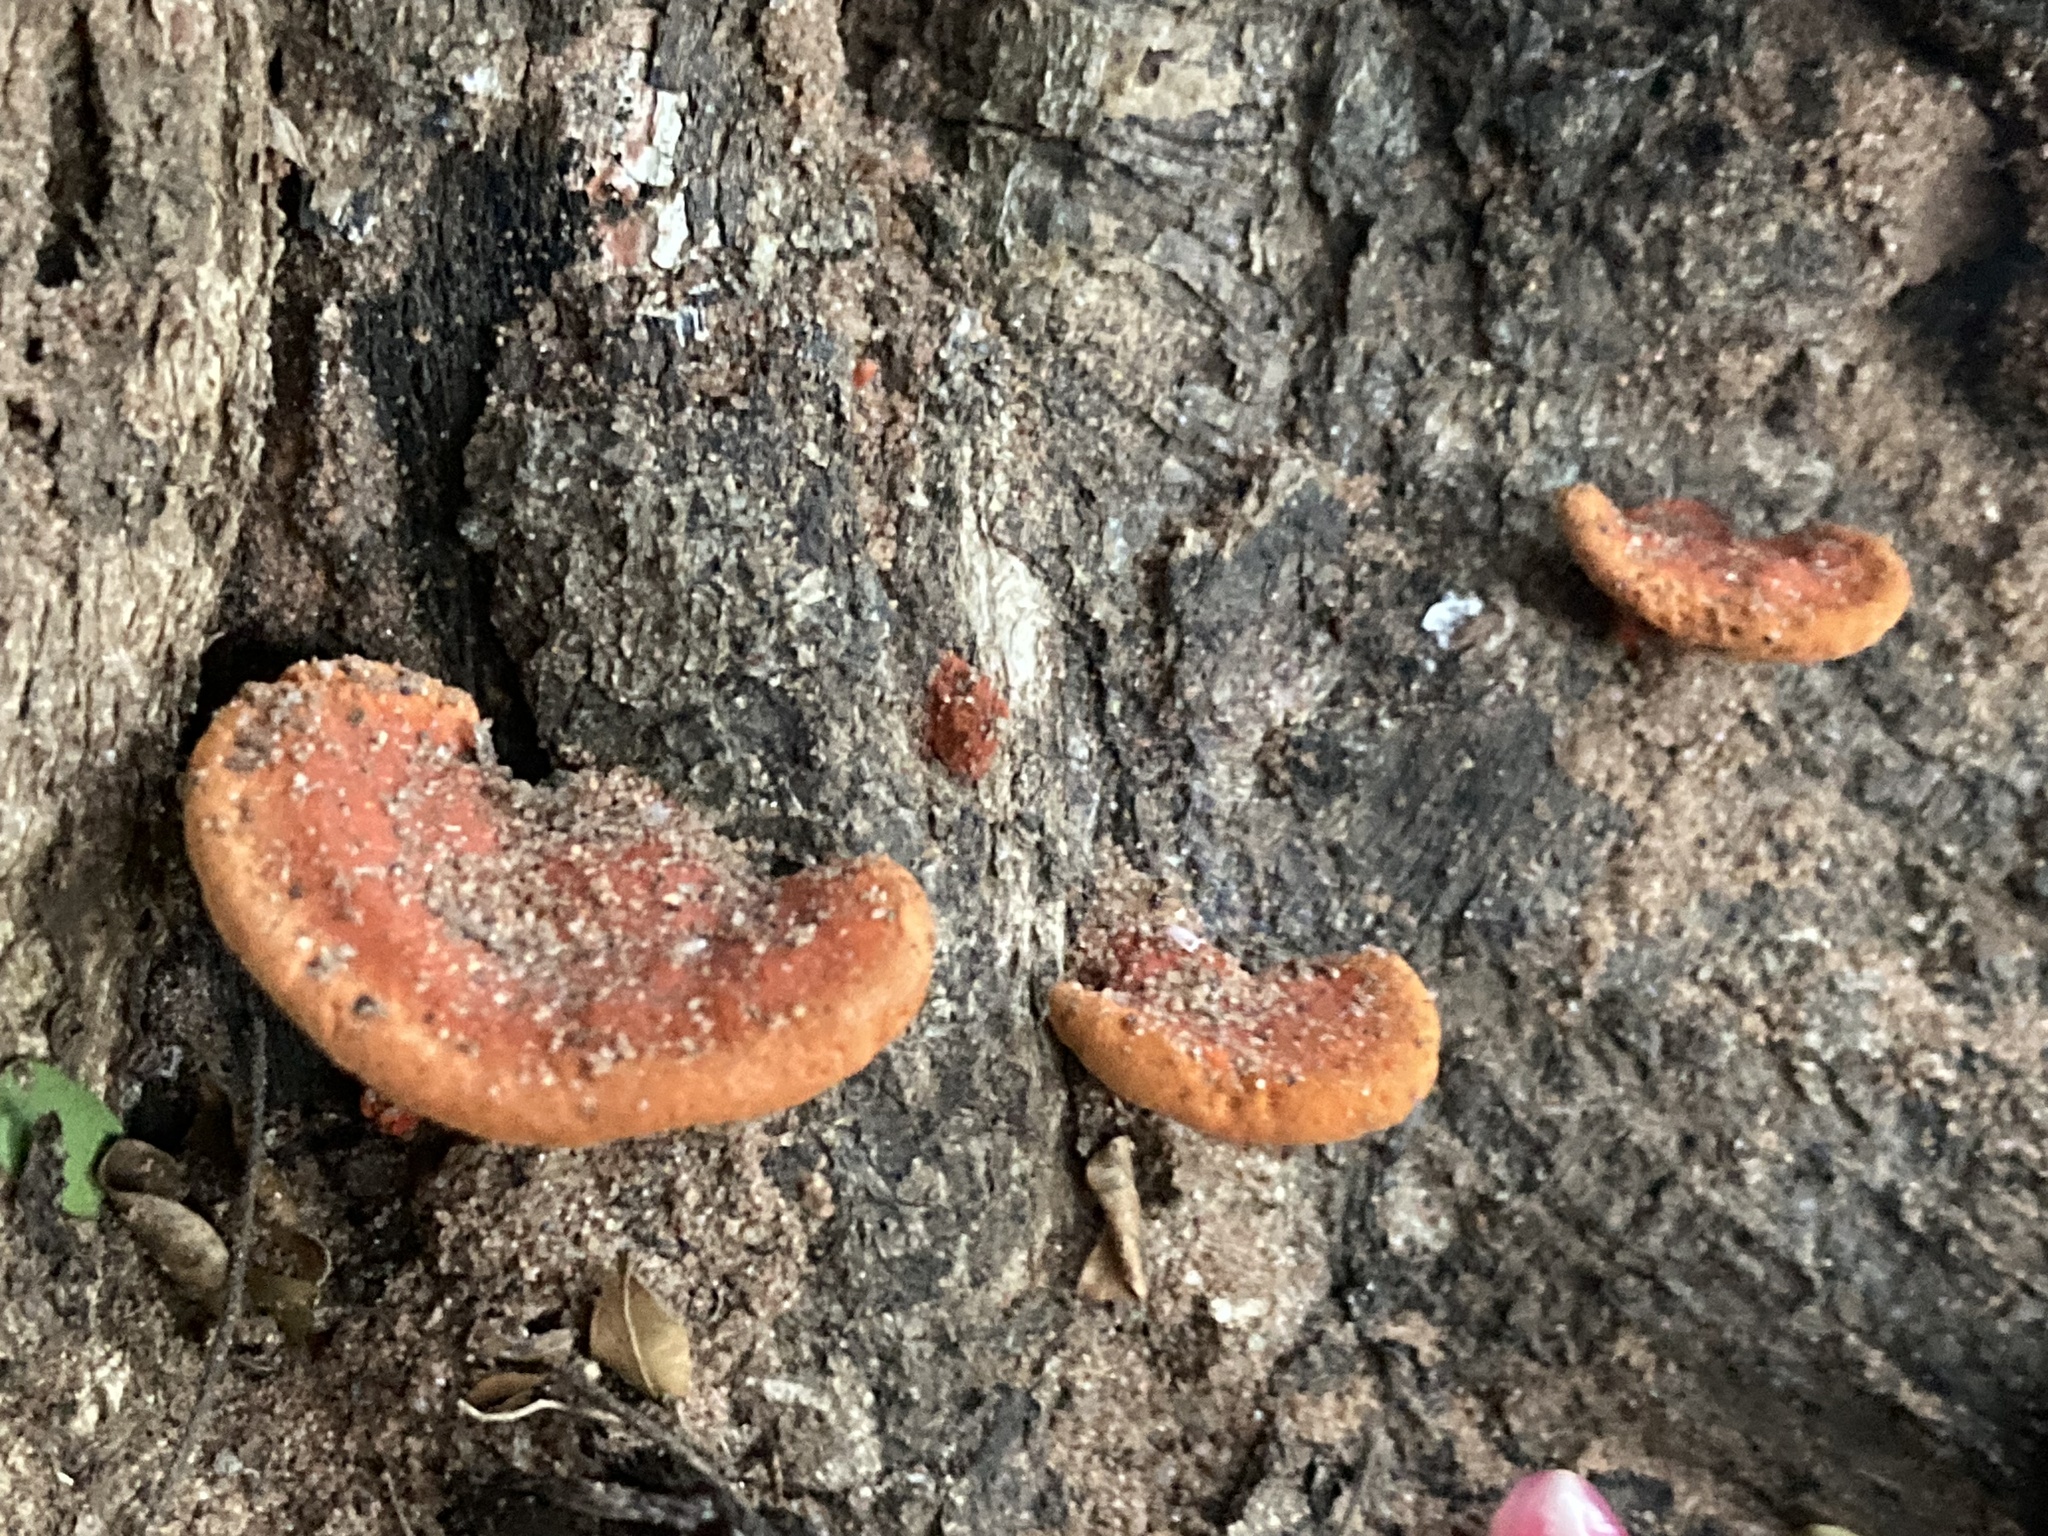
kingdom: Fungi
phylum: Basidiomycota
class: Agaricomycetes
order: Polyporales
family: Polyporaceae
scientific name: Polyporaceae
